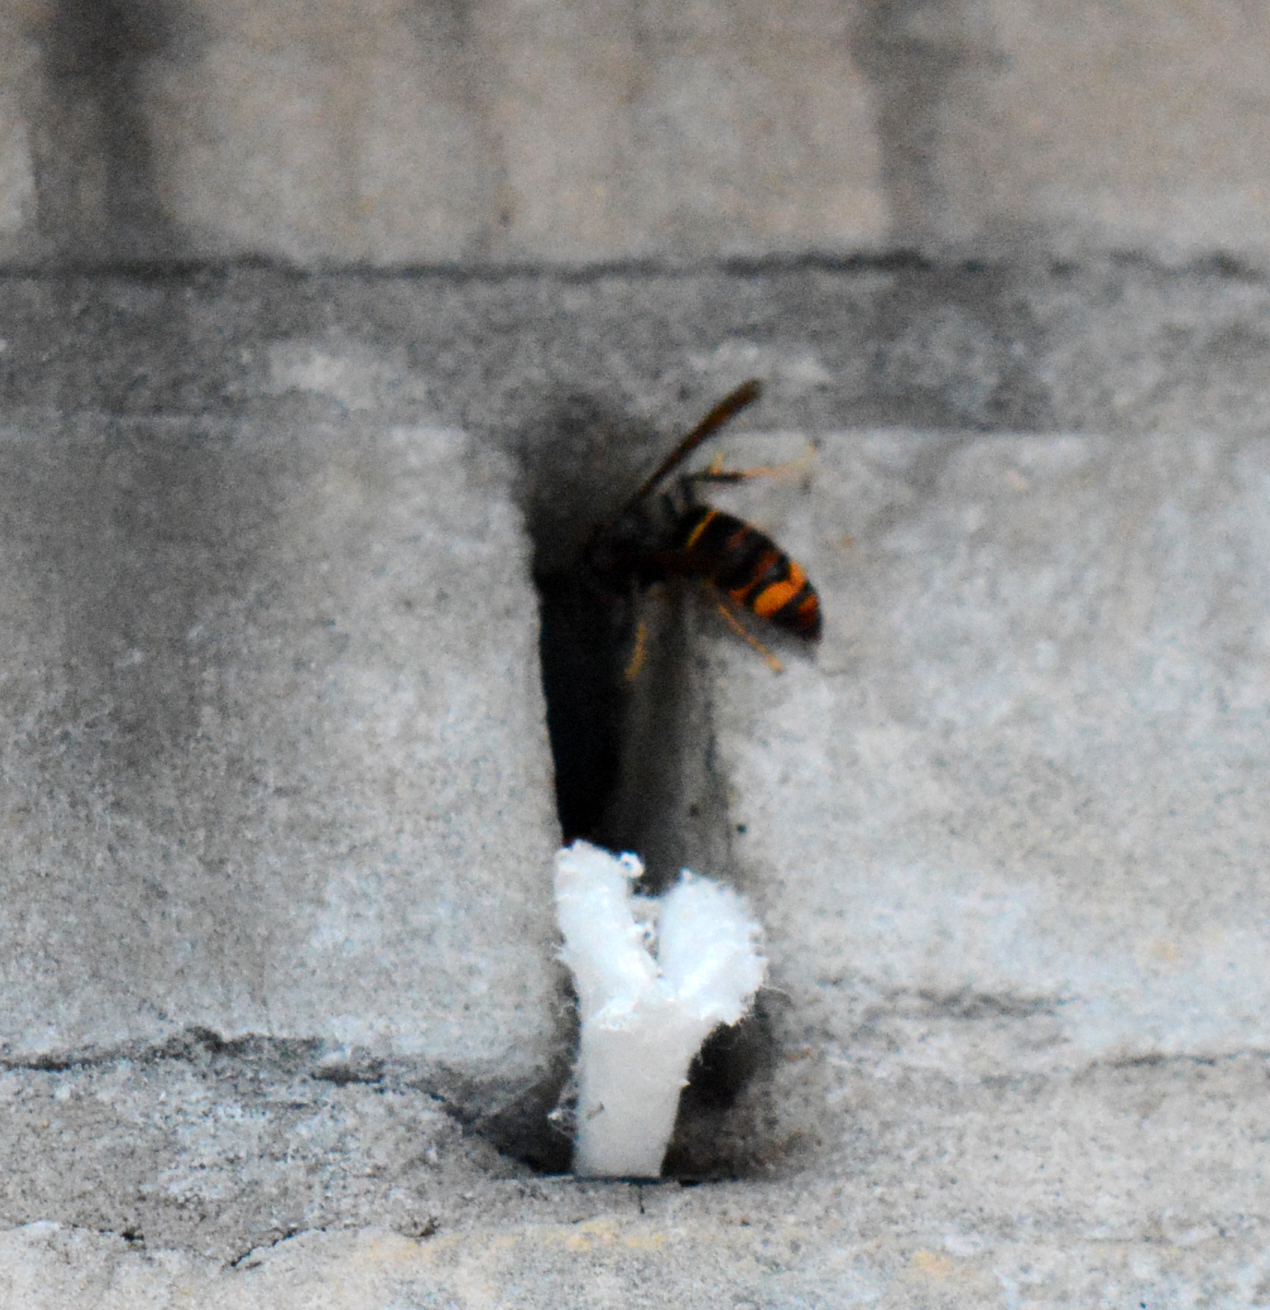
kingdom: Animalia
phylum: Arthropoda
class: Insecta
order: Hymenoptera
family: Vespidae
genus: Vespa
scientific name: Vespa velutina
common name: Asian hornet
